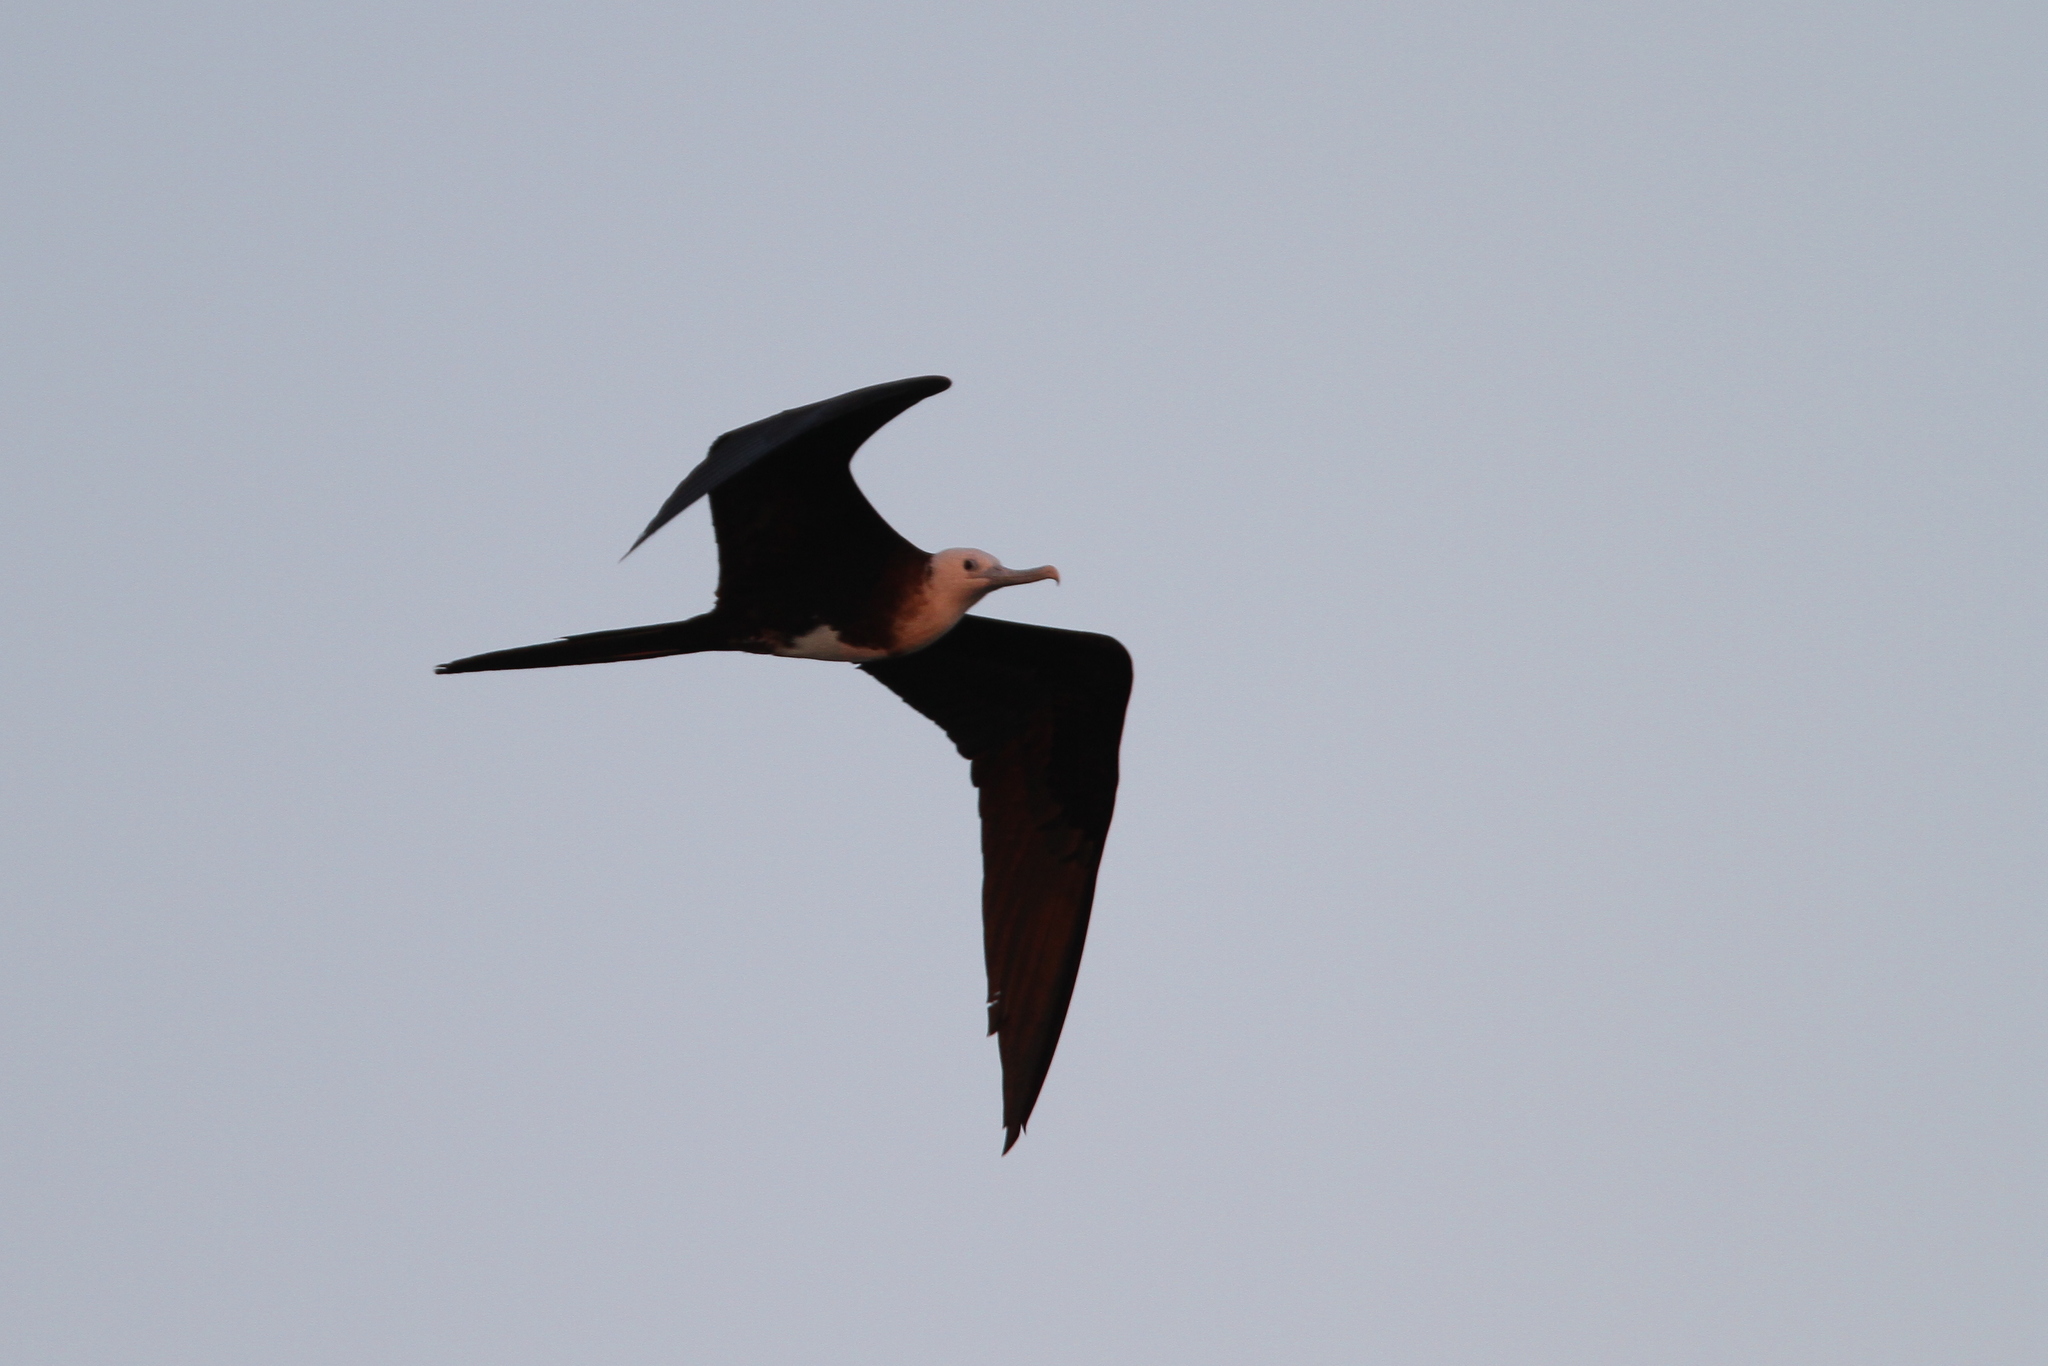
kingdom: Animalia
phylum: Chordata
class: Aves
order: Suliformes
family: Fregatidae
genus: Fregata
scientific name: Fregata magnificens
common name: Magnificent frigatebird
